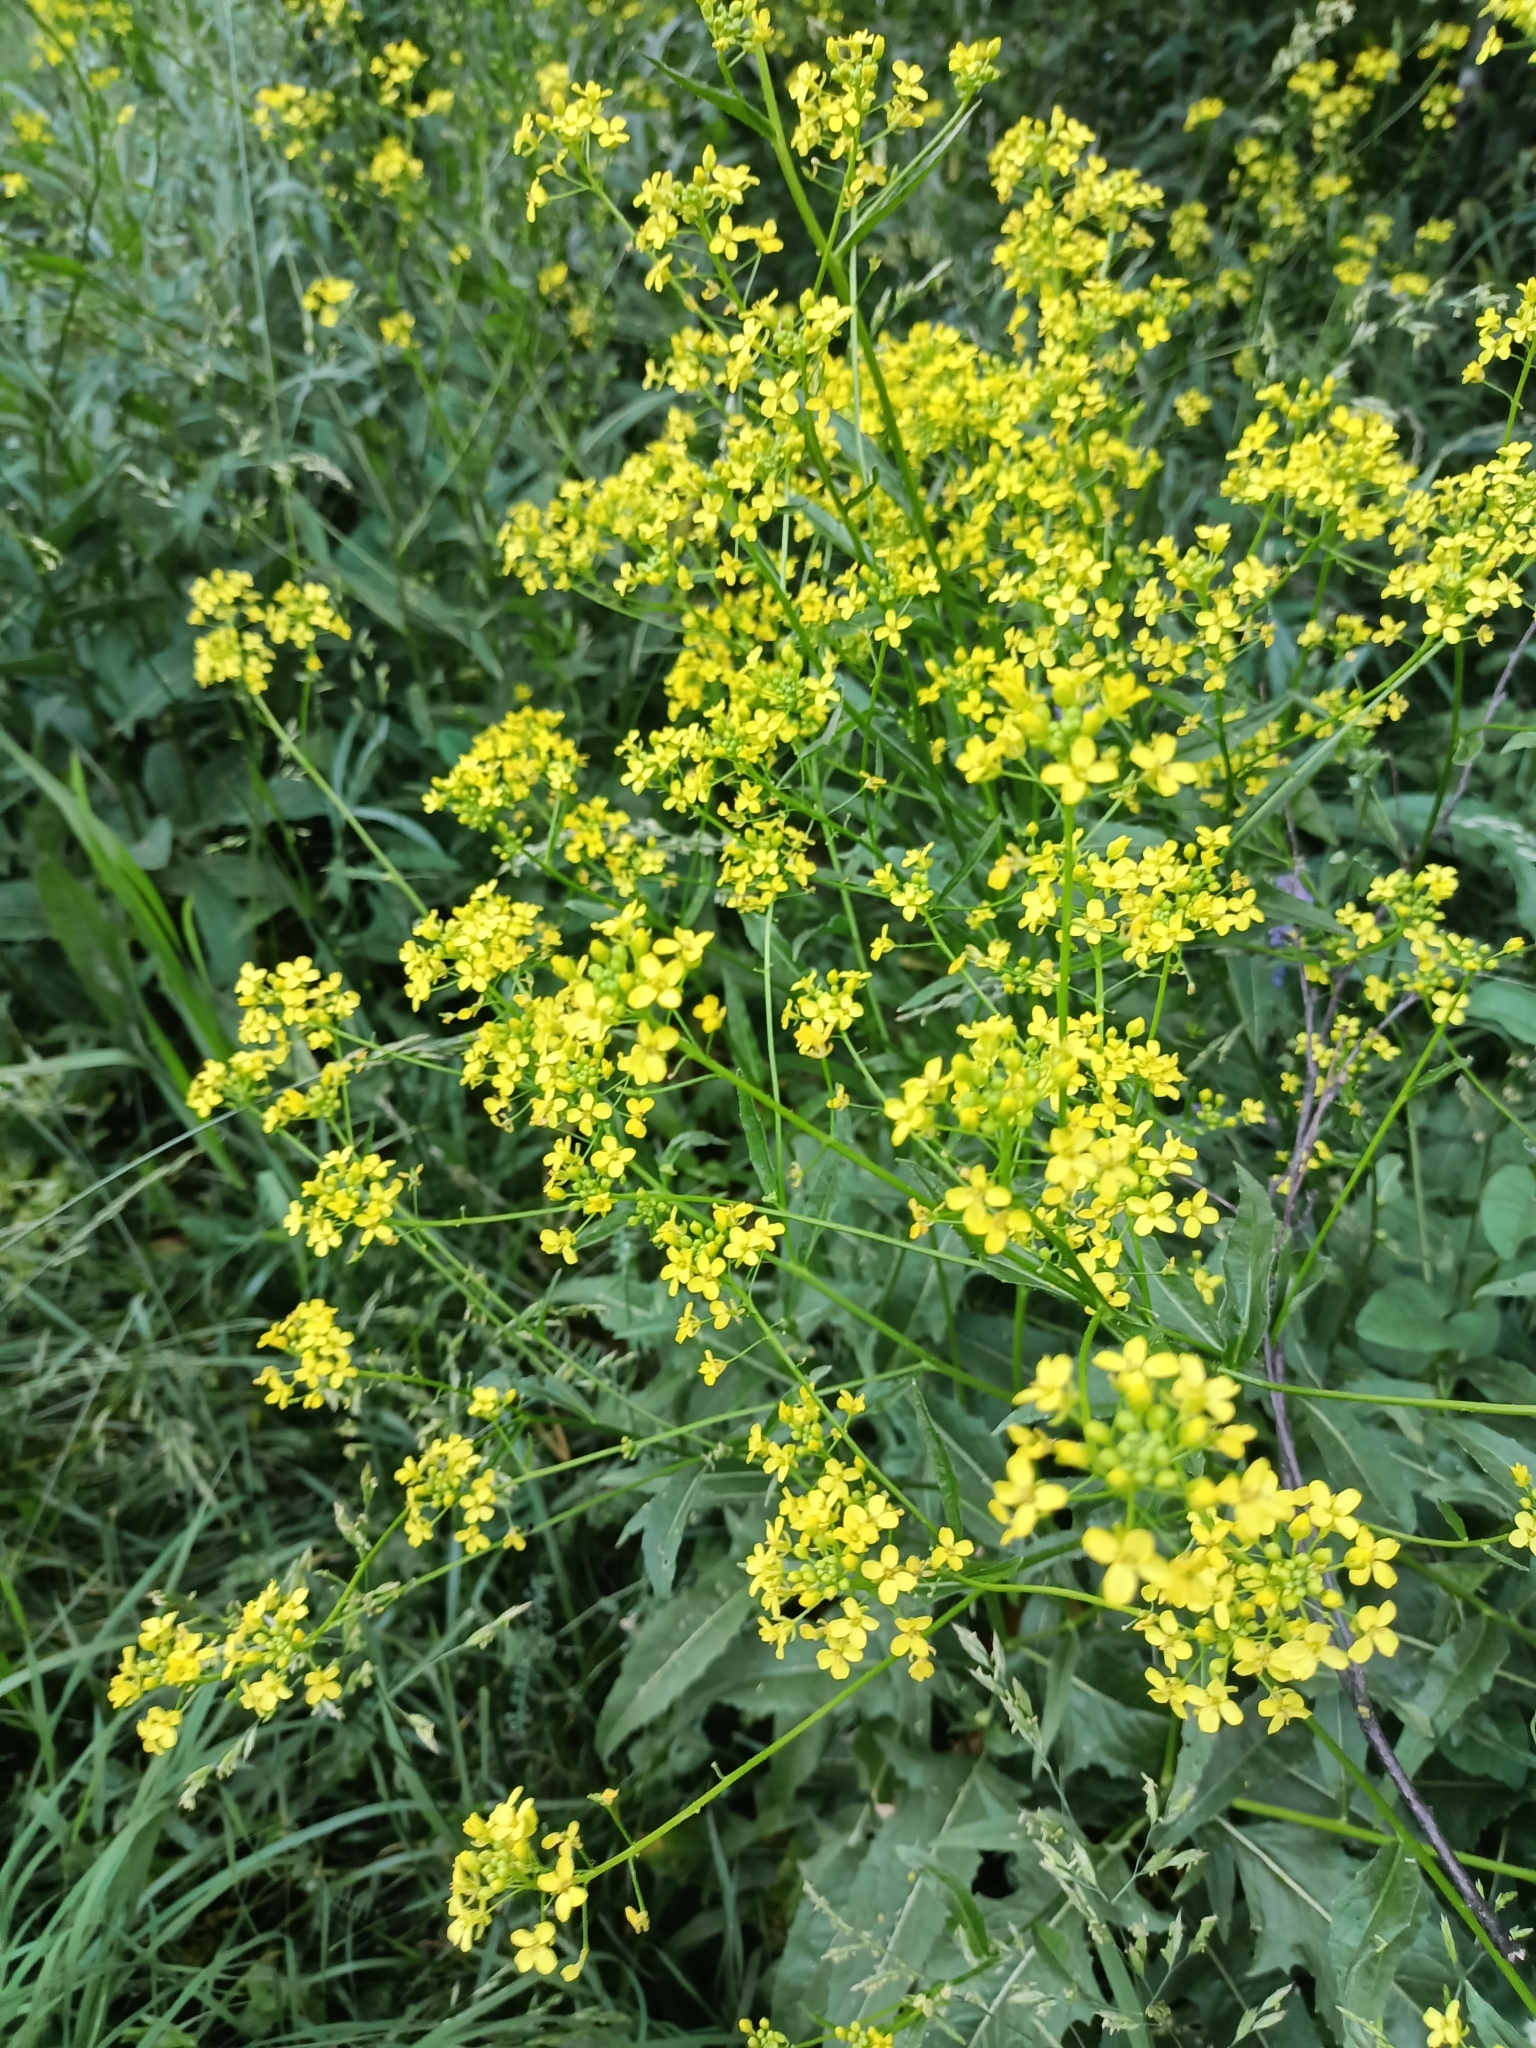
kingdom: Plantae
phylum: Tracheophyta
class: Magnoliopsida
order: Brassicales
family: Brassicaceae
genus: Bunias
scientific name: Bunias orientalis
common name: Warty-cabbage
